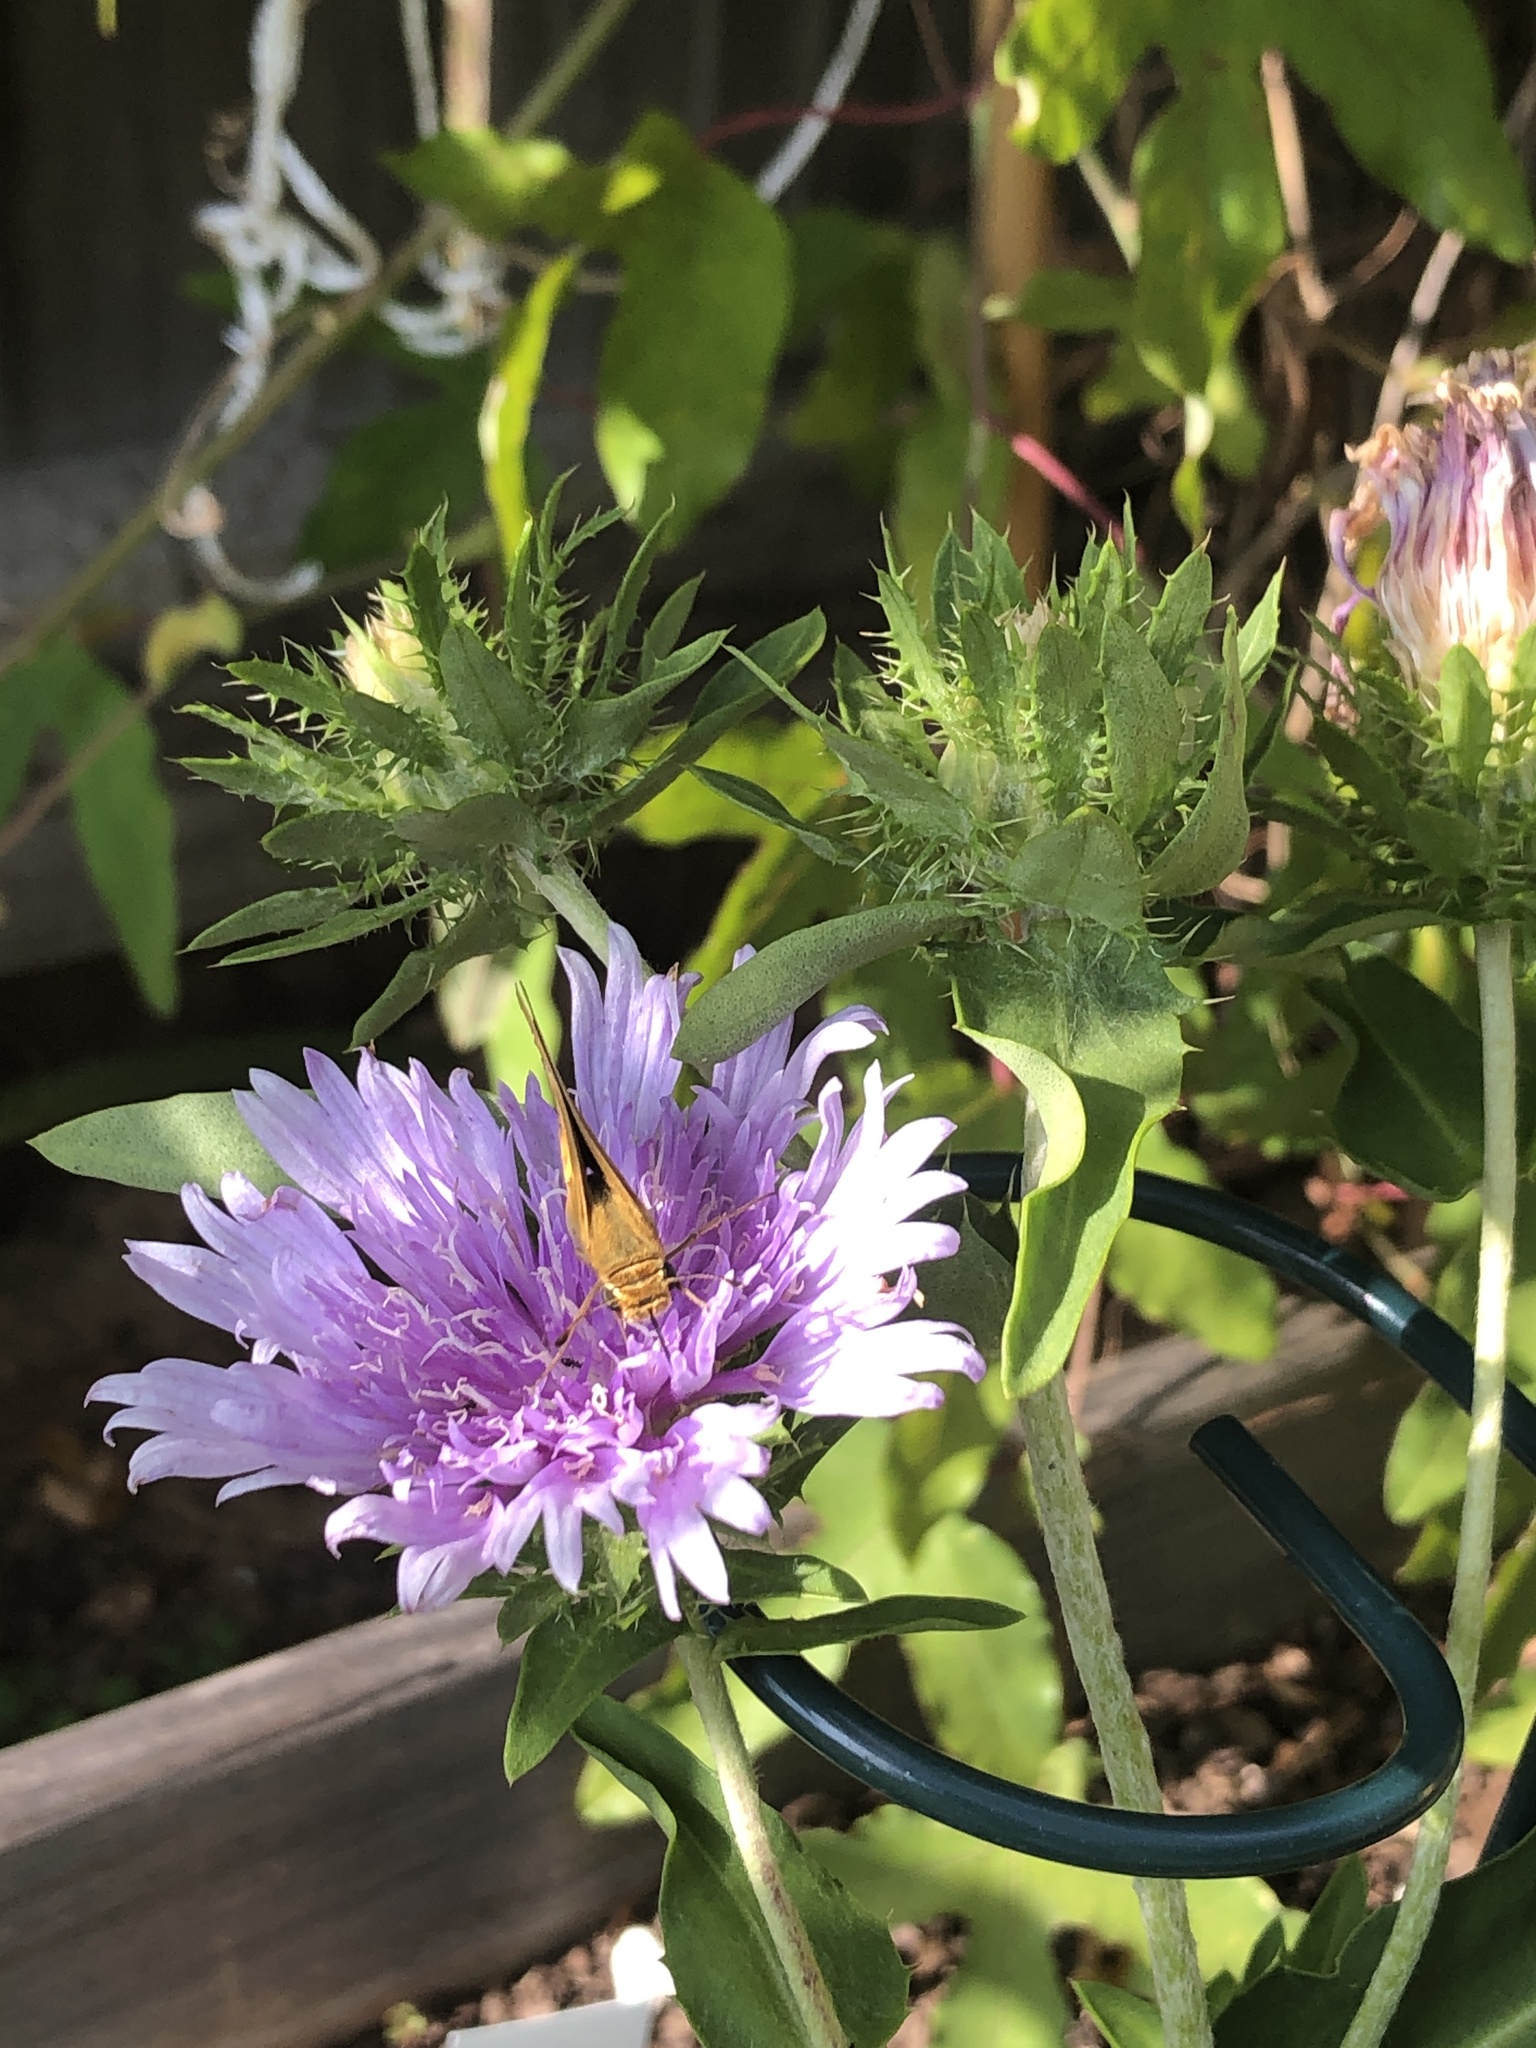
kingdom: Animalia
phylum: Arthropoda
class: Insecta
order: Lepidoptera
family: Hesperiidae
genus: Hylephila
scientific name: Hylephila phyleus
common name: Fiery skipper
